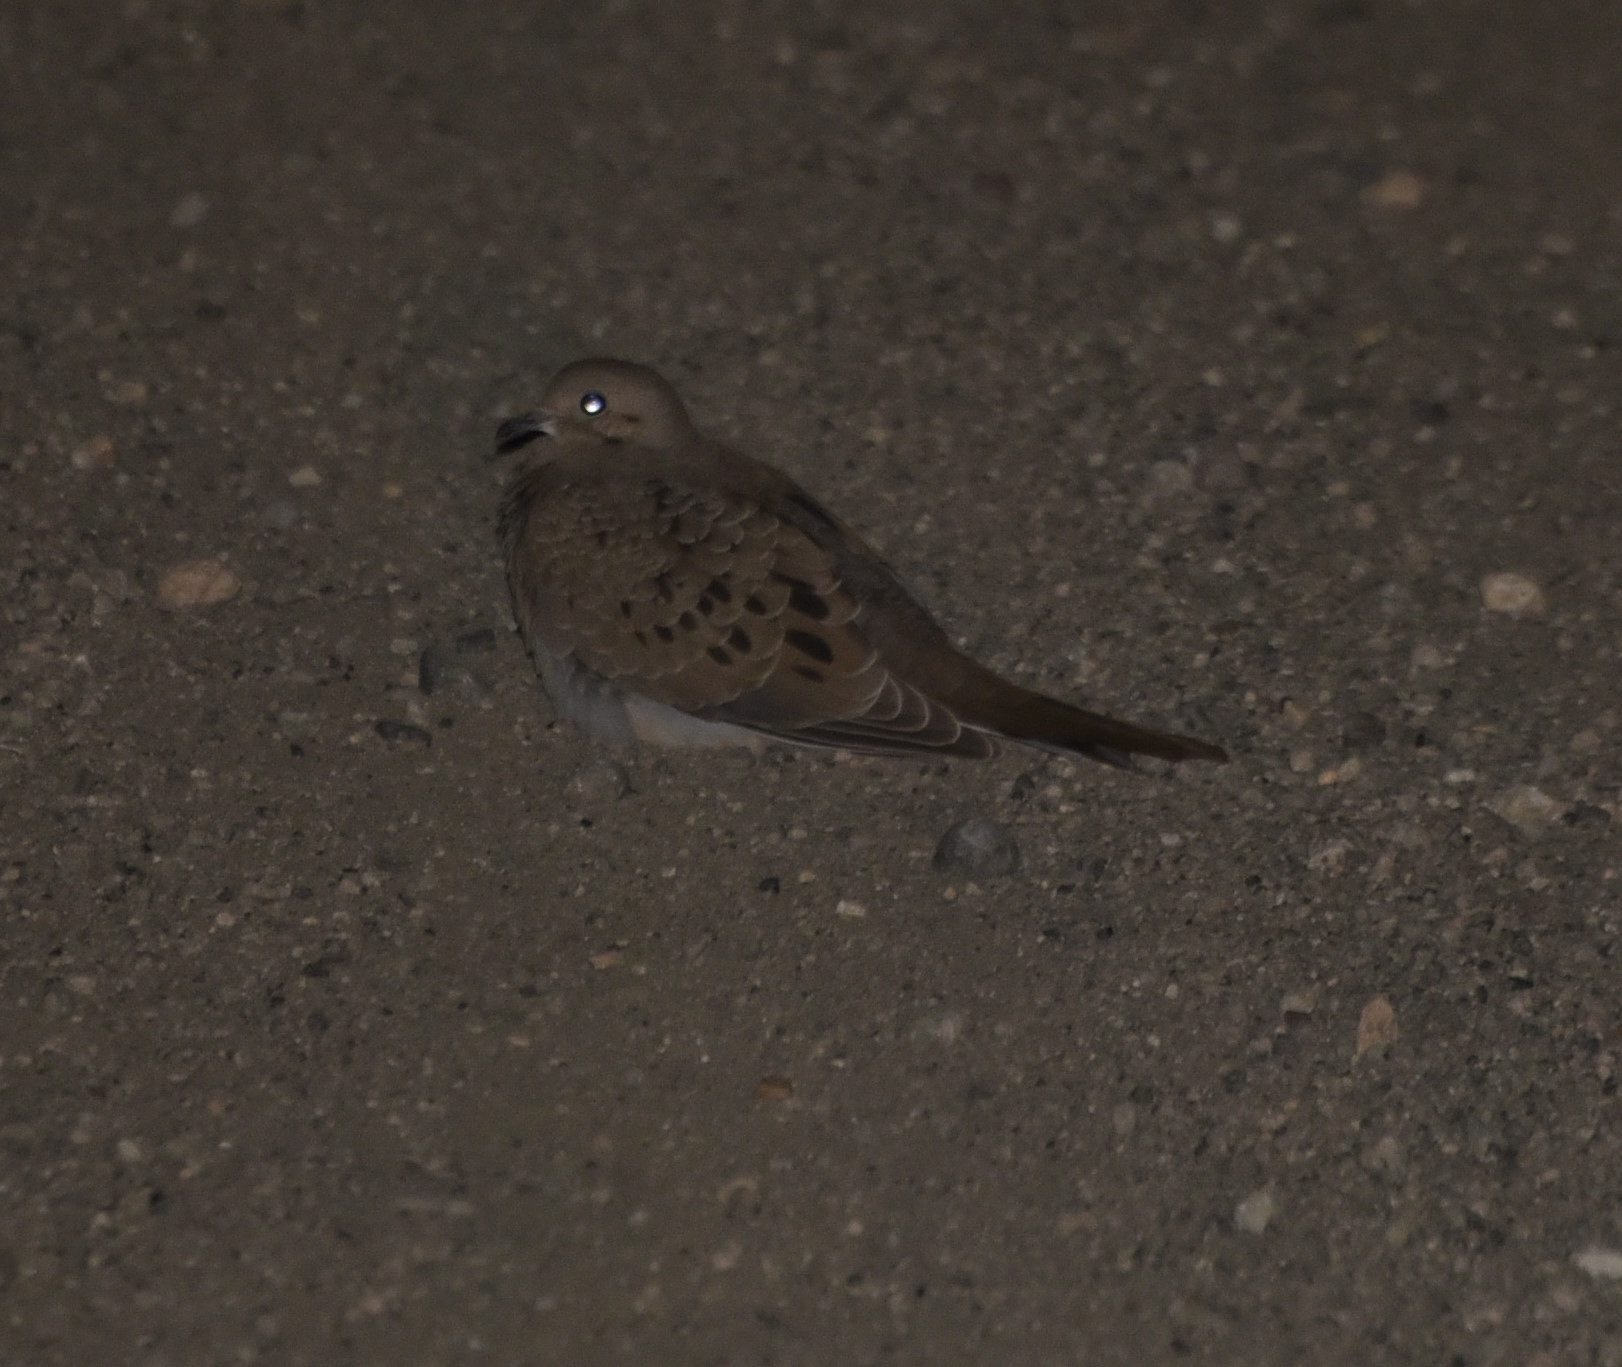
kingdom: Animalia
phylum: Chordata
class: Aves
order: Columbiformes
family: Columbidae
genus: Zenaida
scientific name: Zenaida macroura
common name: Mourning dove
